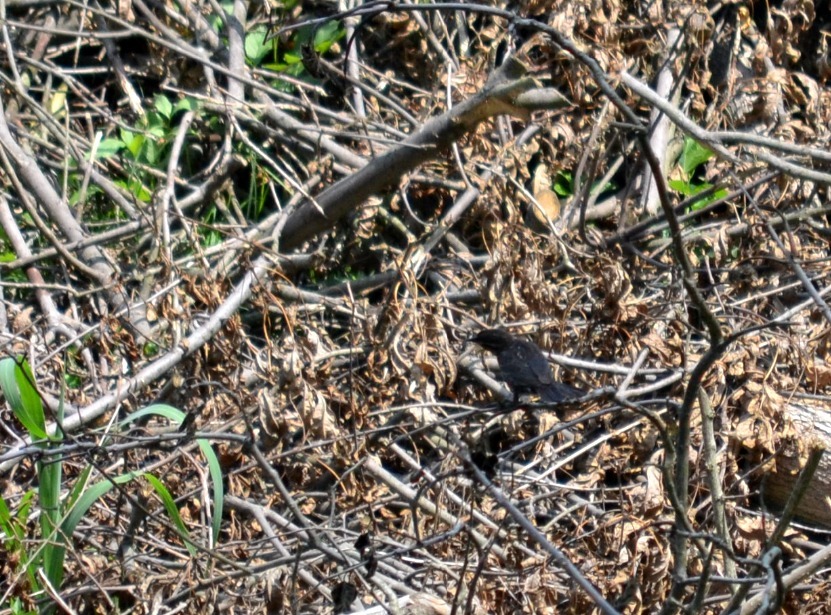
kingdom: Animalia
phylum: Chordata
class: Aves
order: Passeriformes
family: Icteridae
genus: Agelaius
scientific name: Agelaius phoeniceus
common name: Red-winged blackbird
